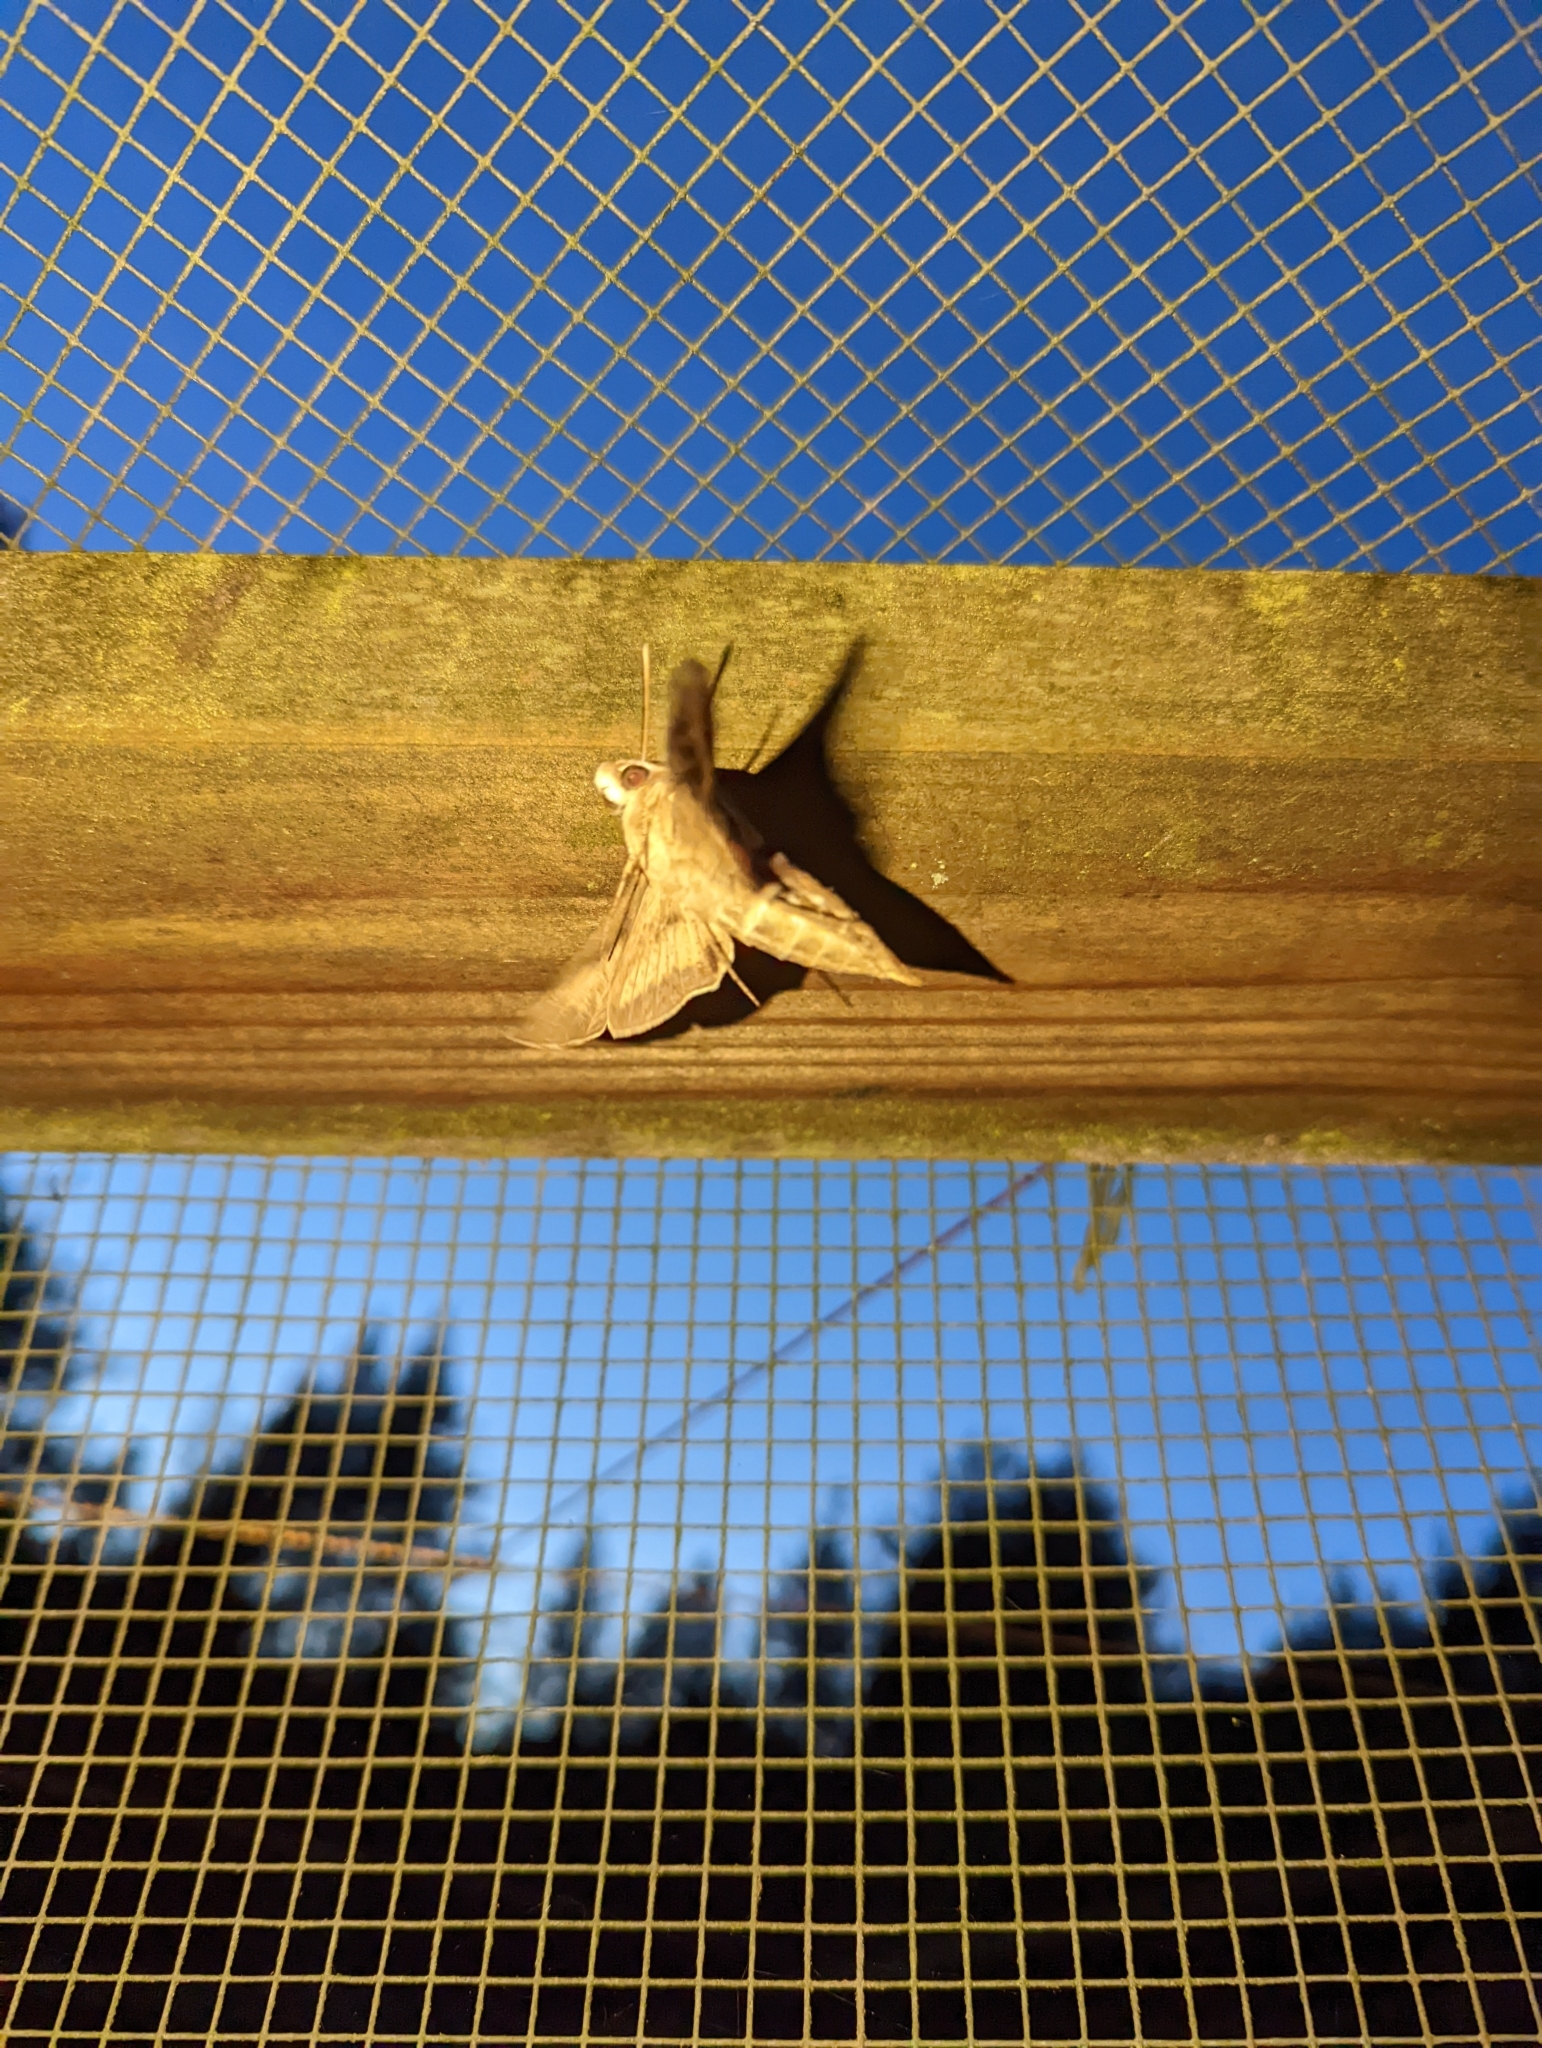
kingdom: Animalia
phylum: Arthropoda
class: Insecta
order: Lepidoptera
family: Sphingidae
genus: Hyles
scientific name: Hyles lineata
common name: White-lined sphinx
